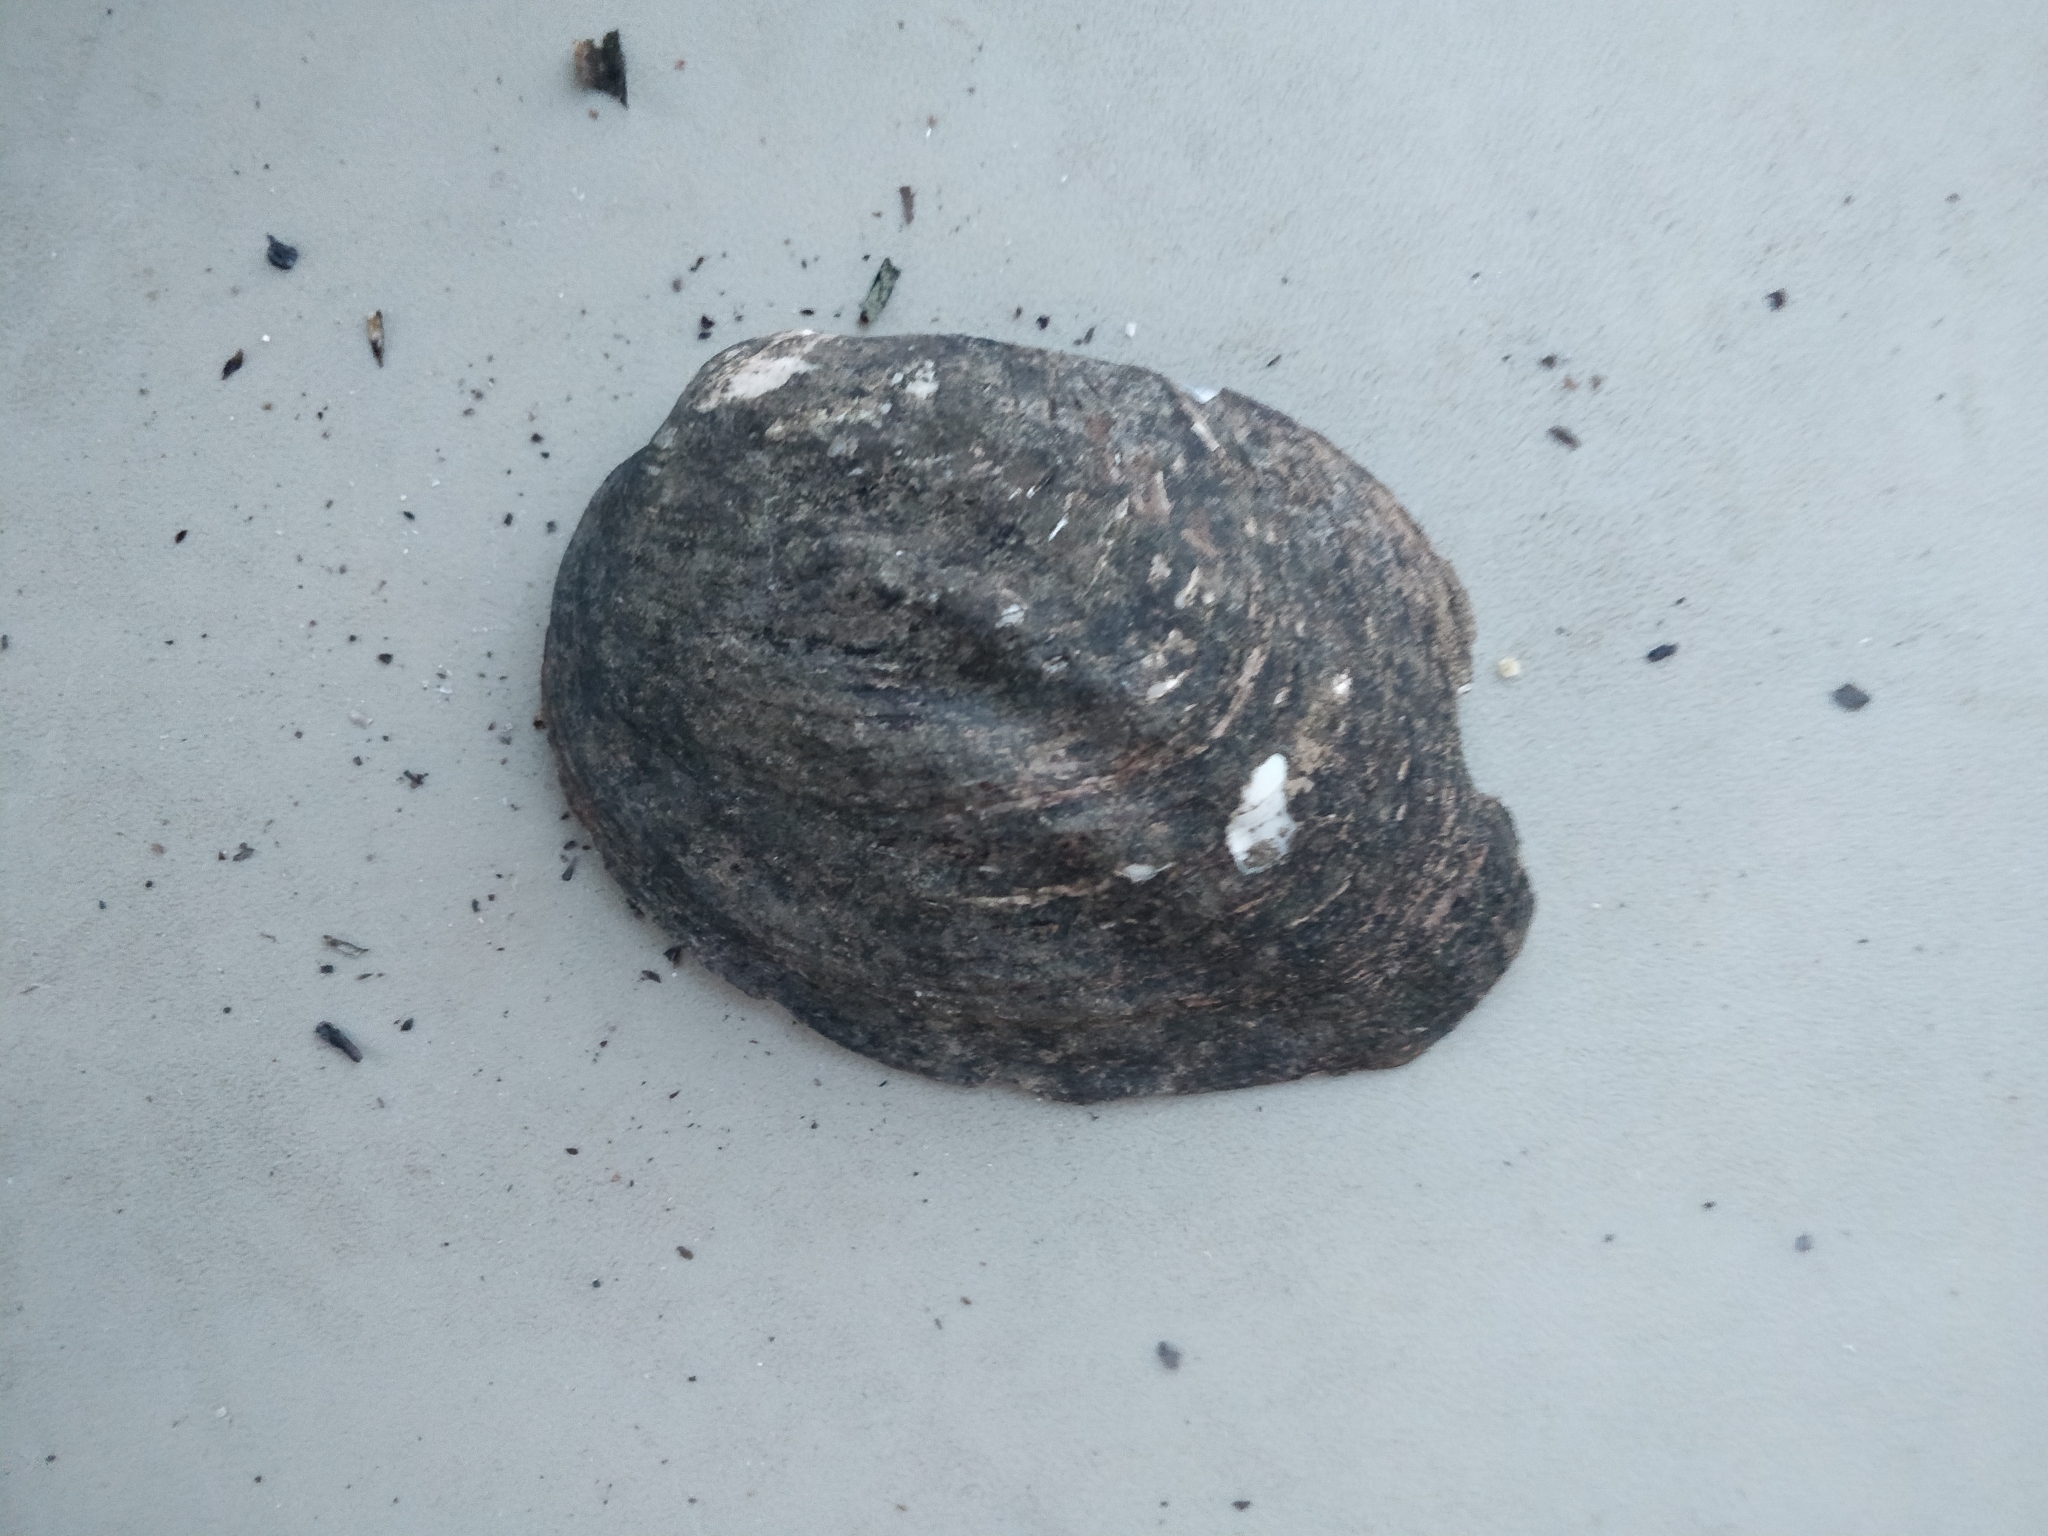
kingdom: Animalia
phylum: Mollusca
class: Bivalvia
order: Unionida
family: Unionidae
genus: Amblema
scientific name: Amblema plicata
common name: Threeridge
